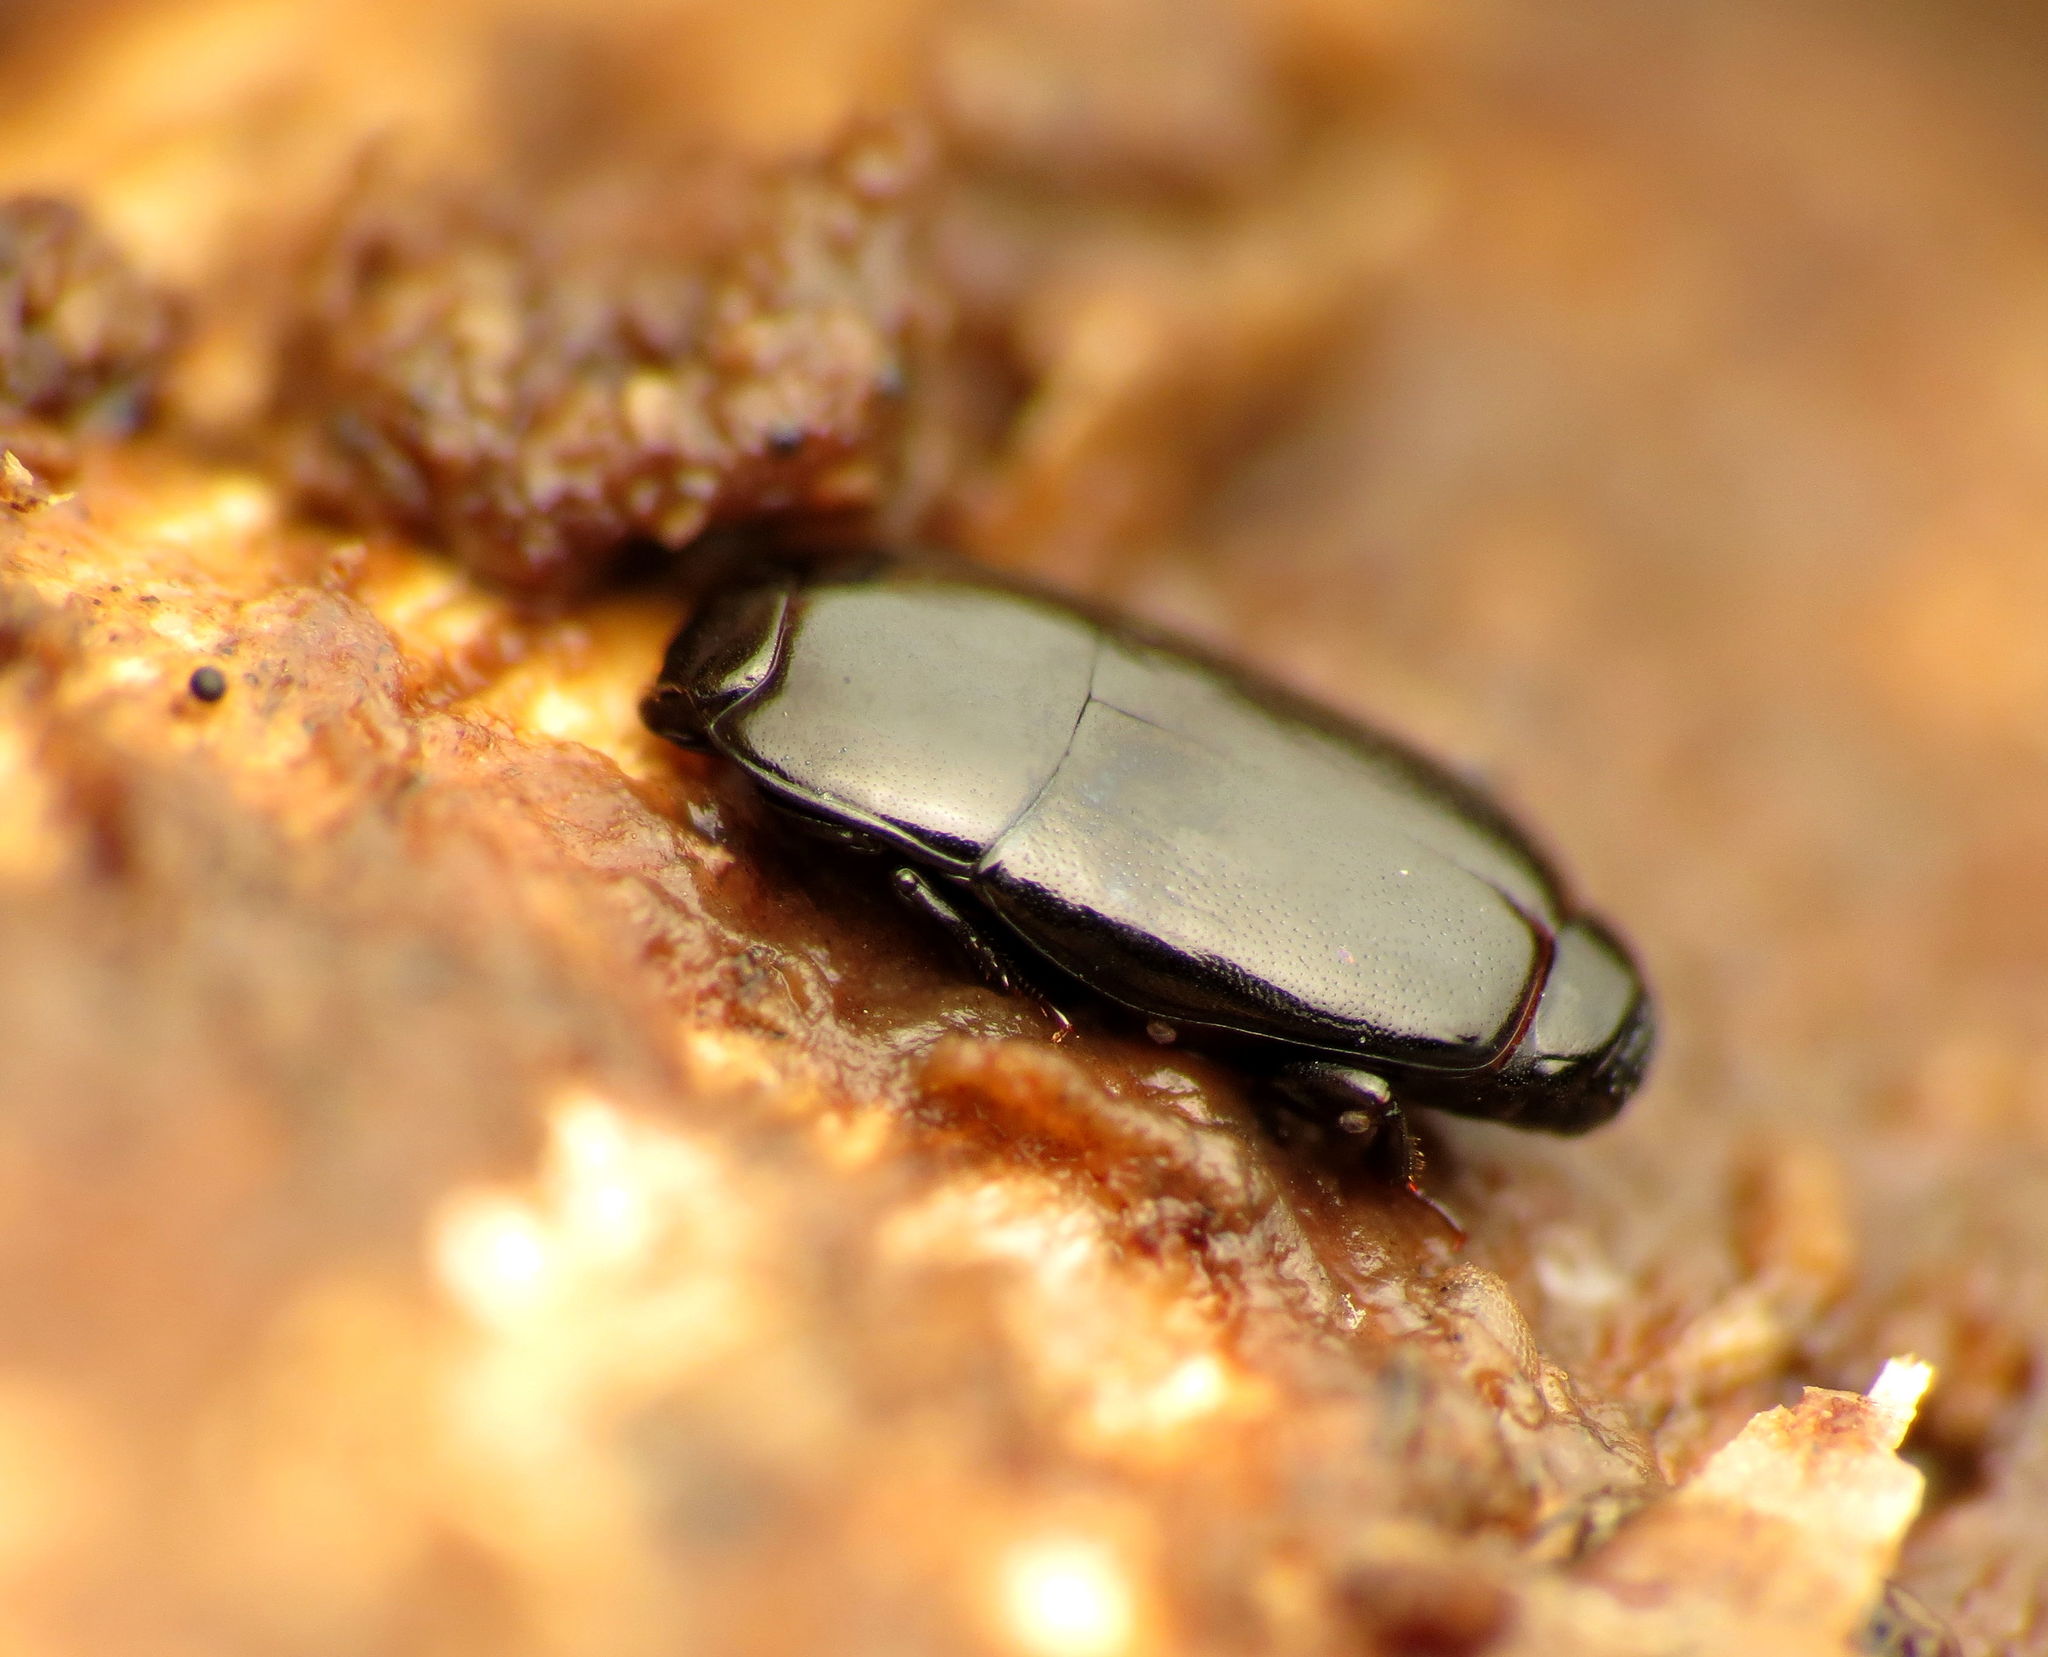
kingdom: Animalia
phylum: Arthropoda
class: Insecta
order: Coleoptera
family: Histeridae
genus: Platylomalus
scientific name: Platylomalus aequalis
